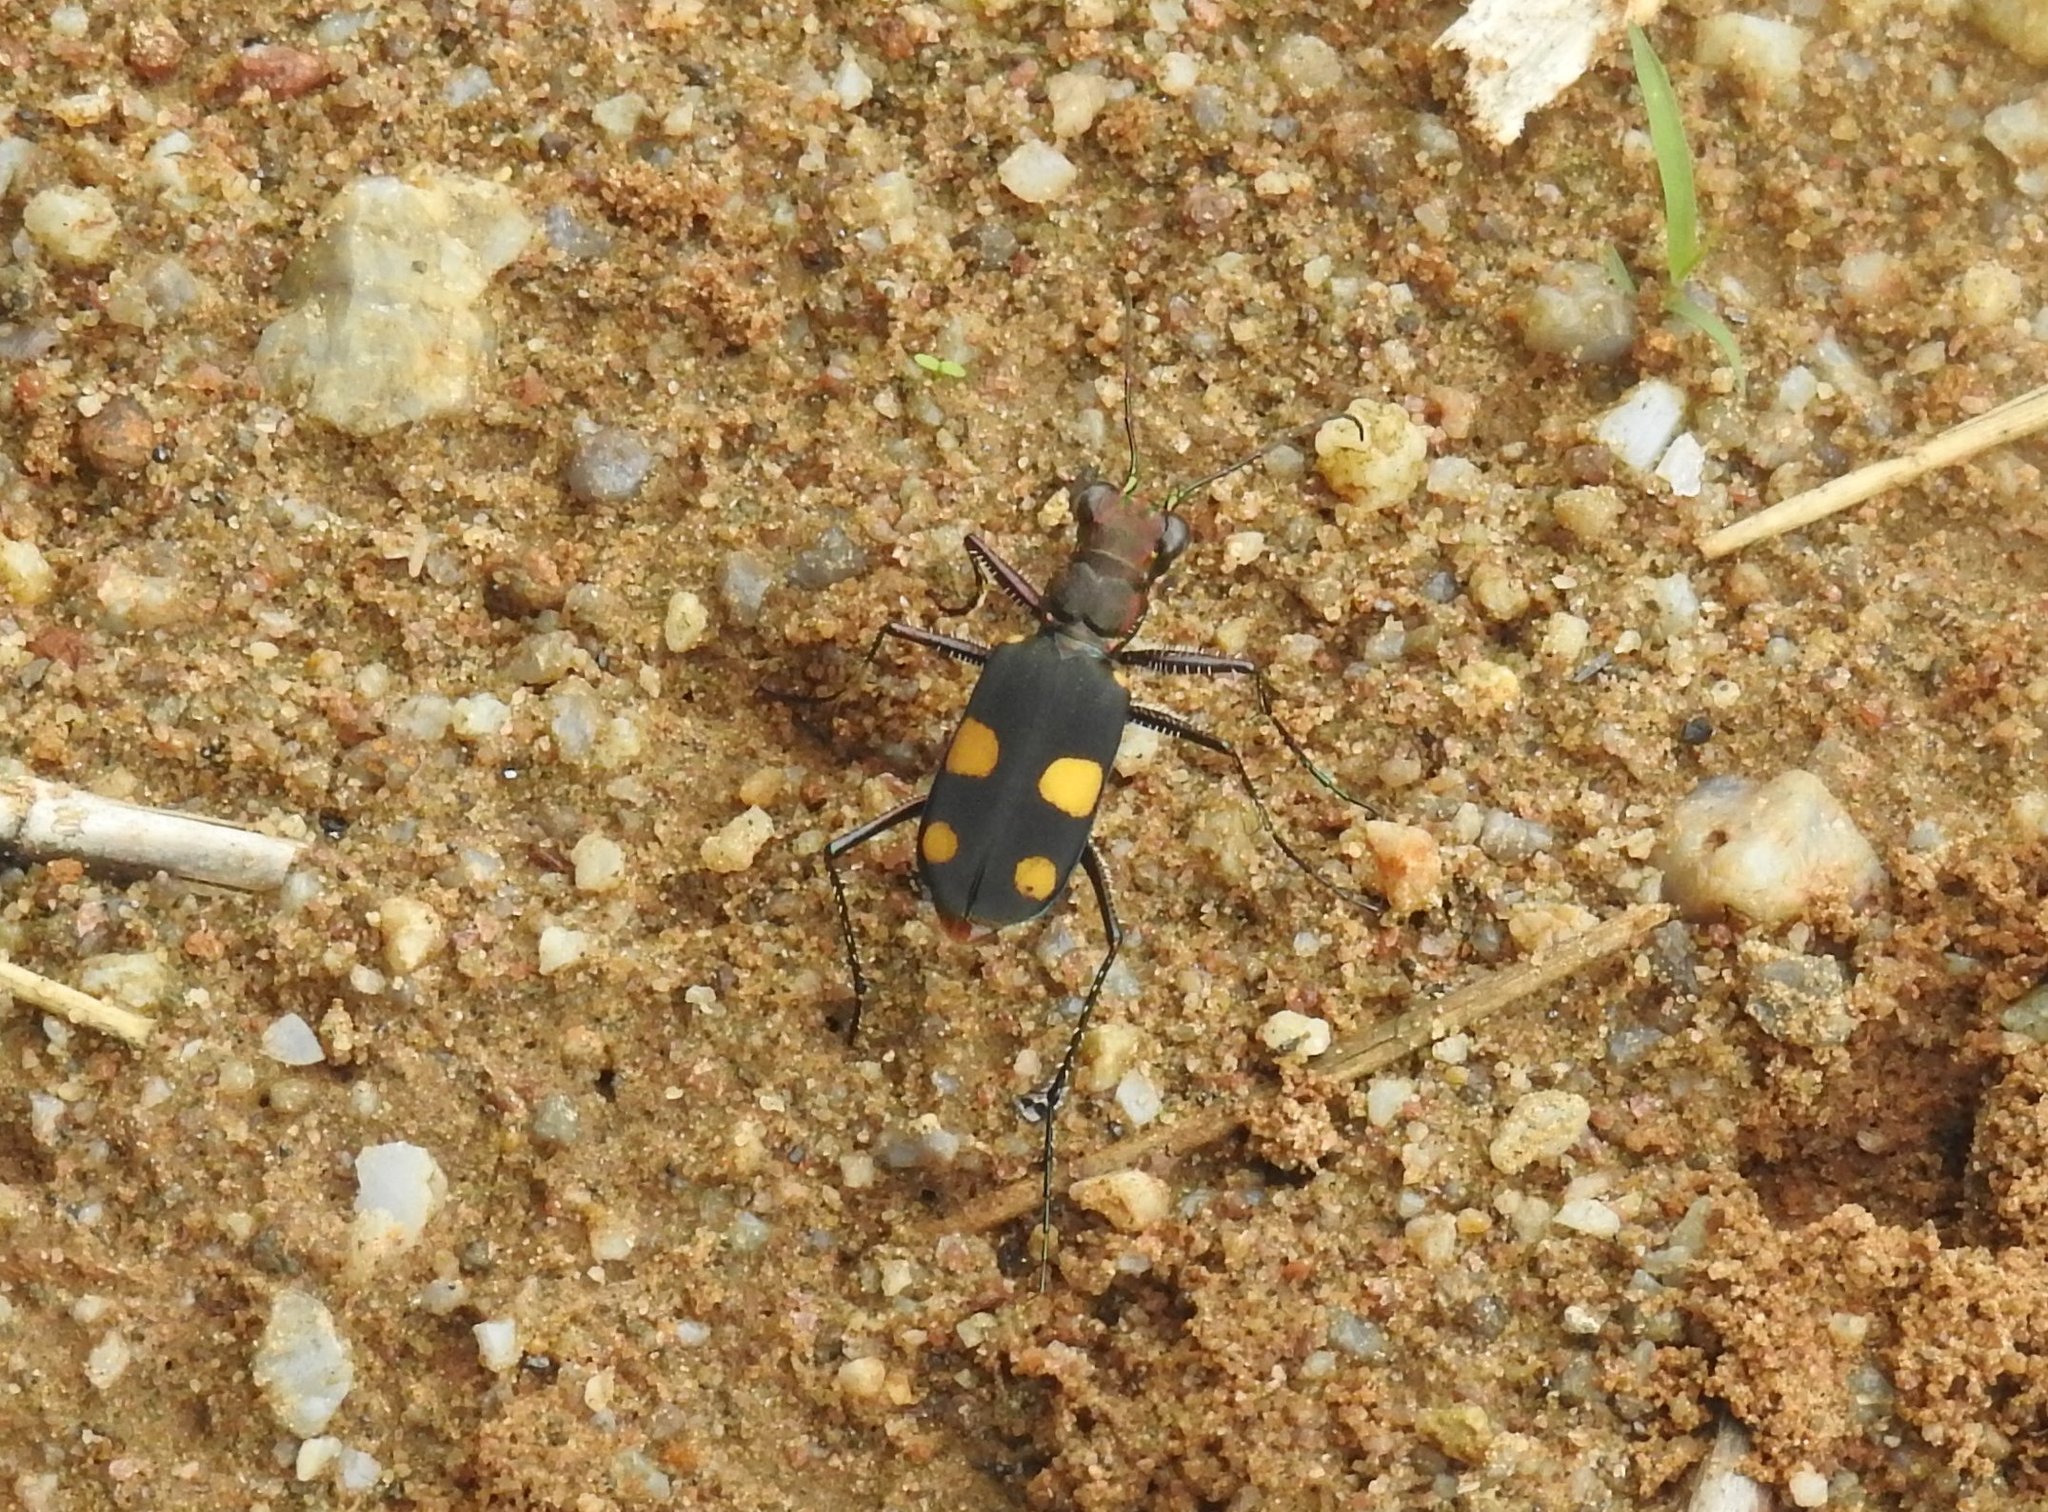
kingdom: Animalia
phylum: Arthropoda
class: Insecta
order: Coleoptera
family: Carabidae
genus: Cicindela
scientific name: Cicindela bicolor
